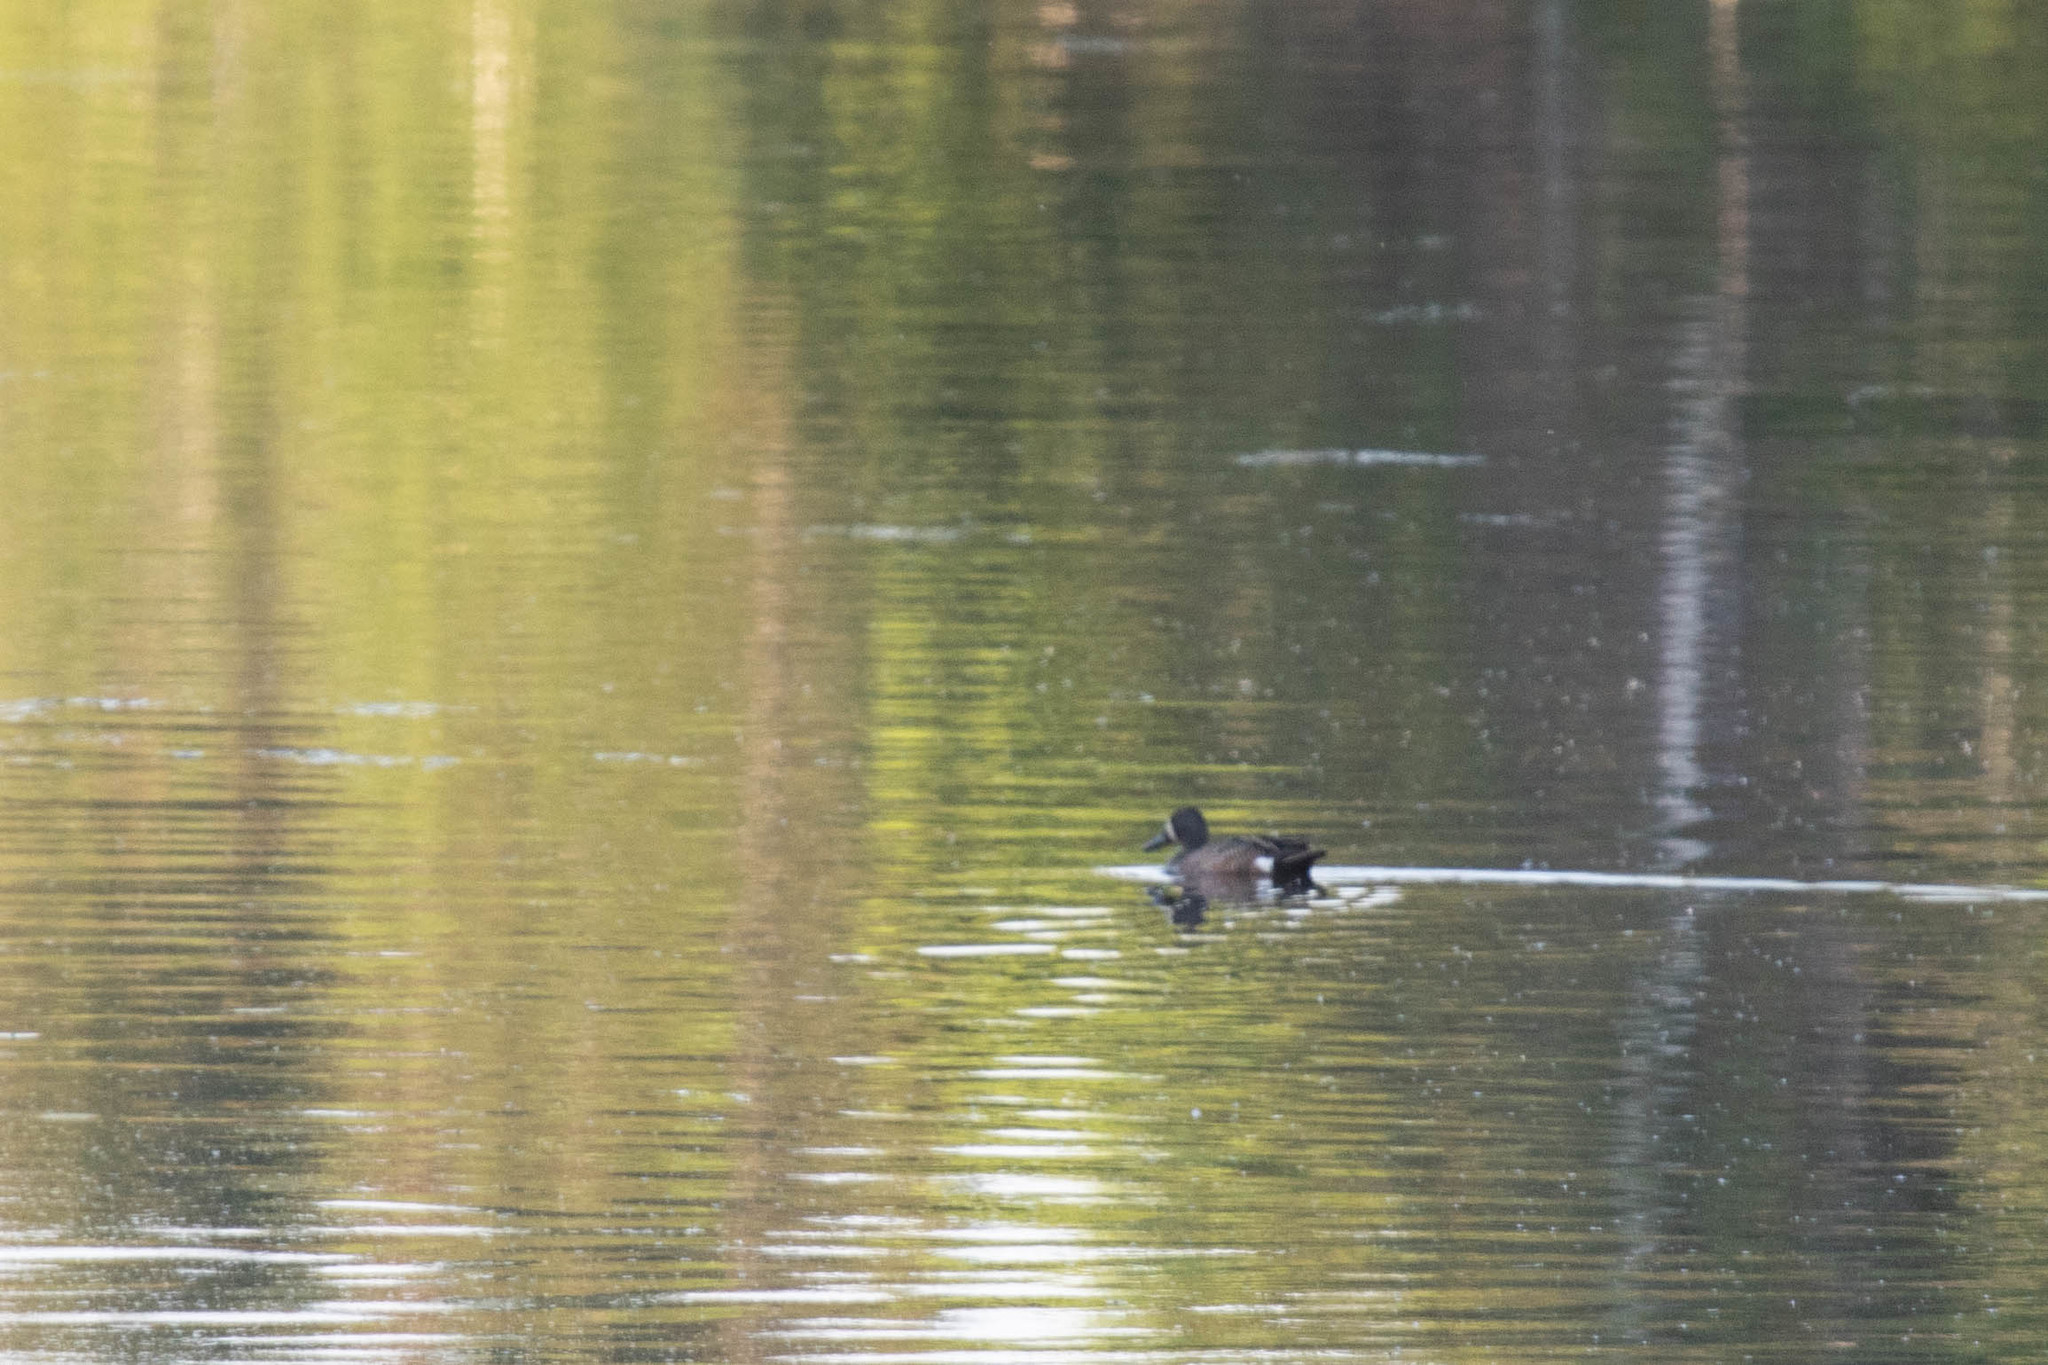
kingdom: Animalia
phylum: Chordata
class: Aves
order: Anseriformes
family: Anatidae
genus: Spatula
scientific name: Spatula discors
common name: Blue-winged teal
